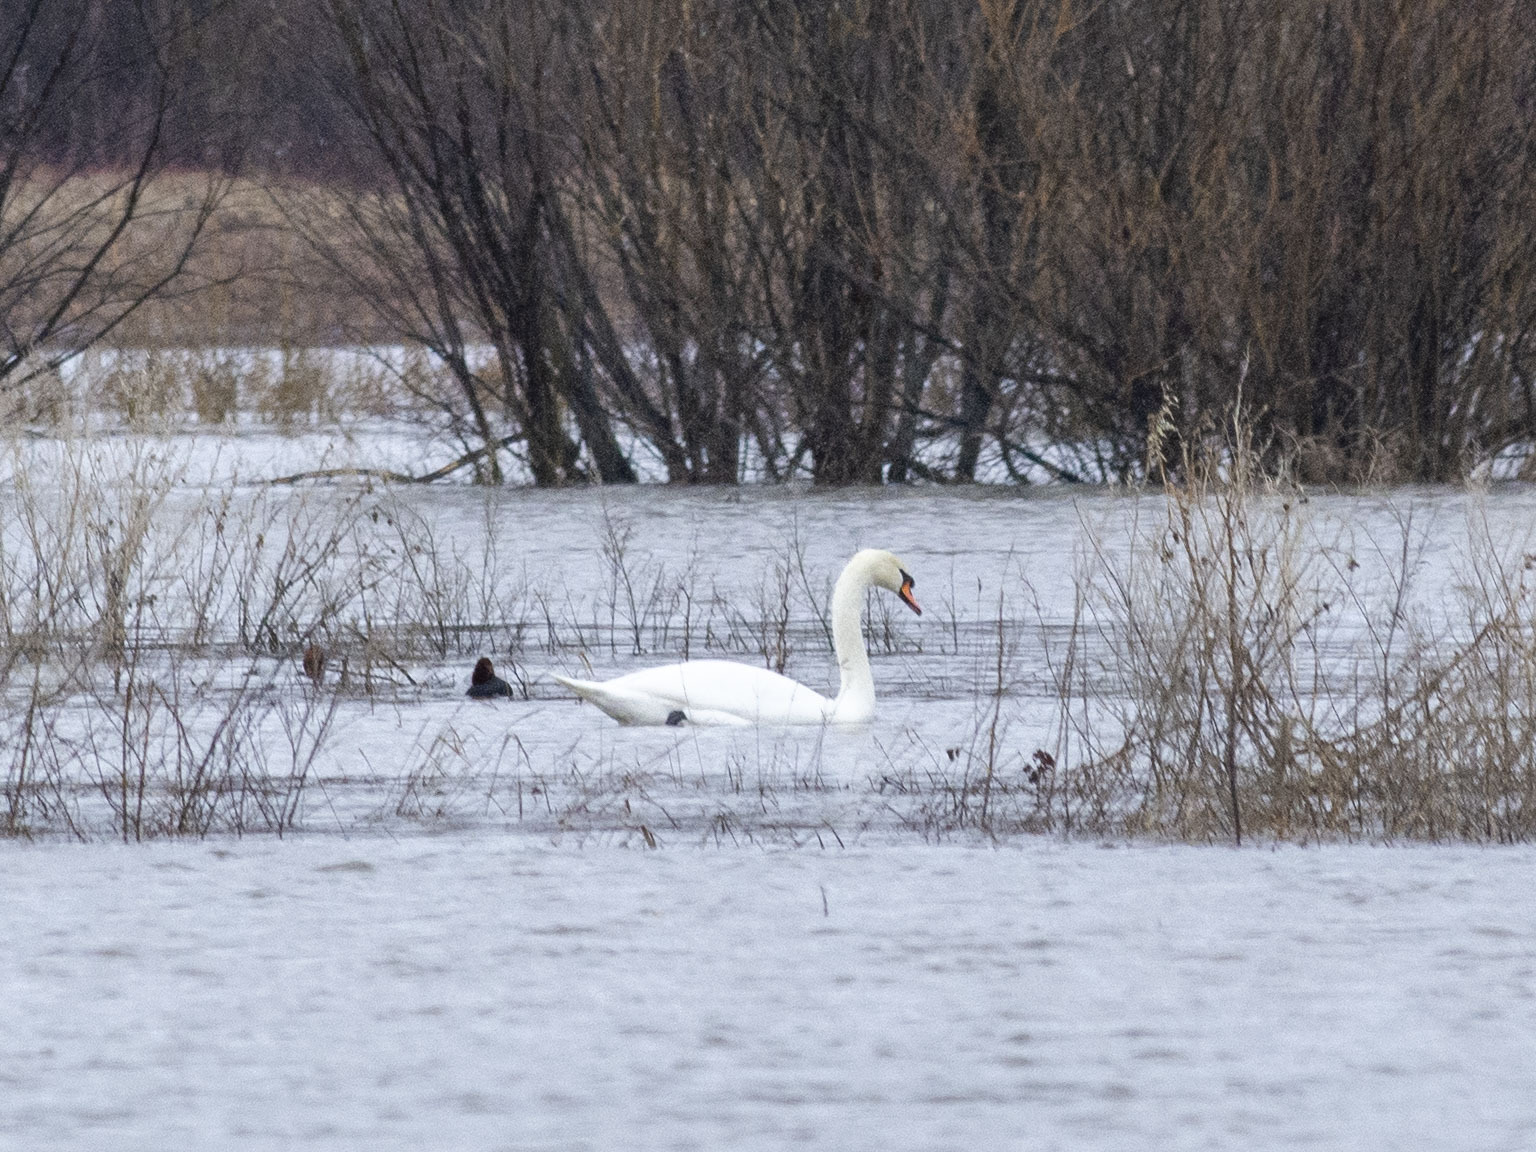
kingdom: Animalia
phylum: Chordata
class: Aves
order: Anseriformes
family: Anatidae
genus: Cygnus
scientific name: Cygnus olor
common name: Mute swan
